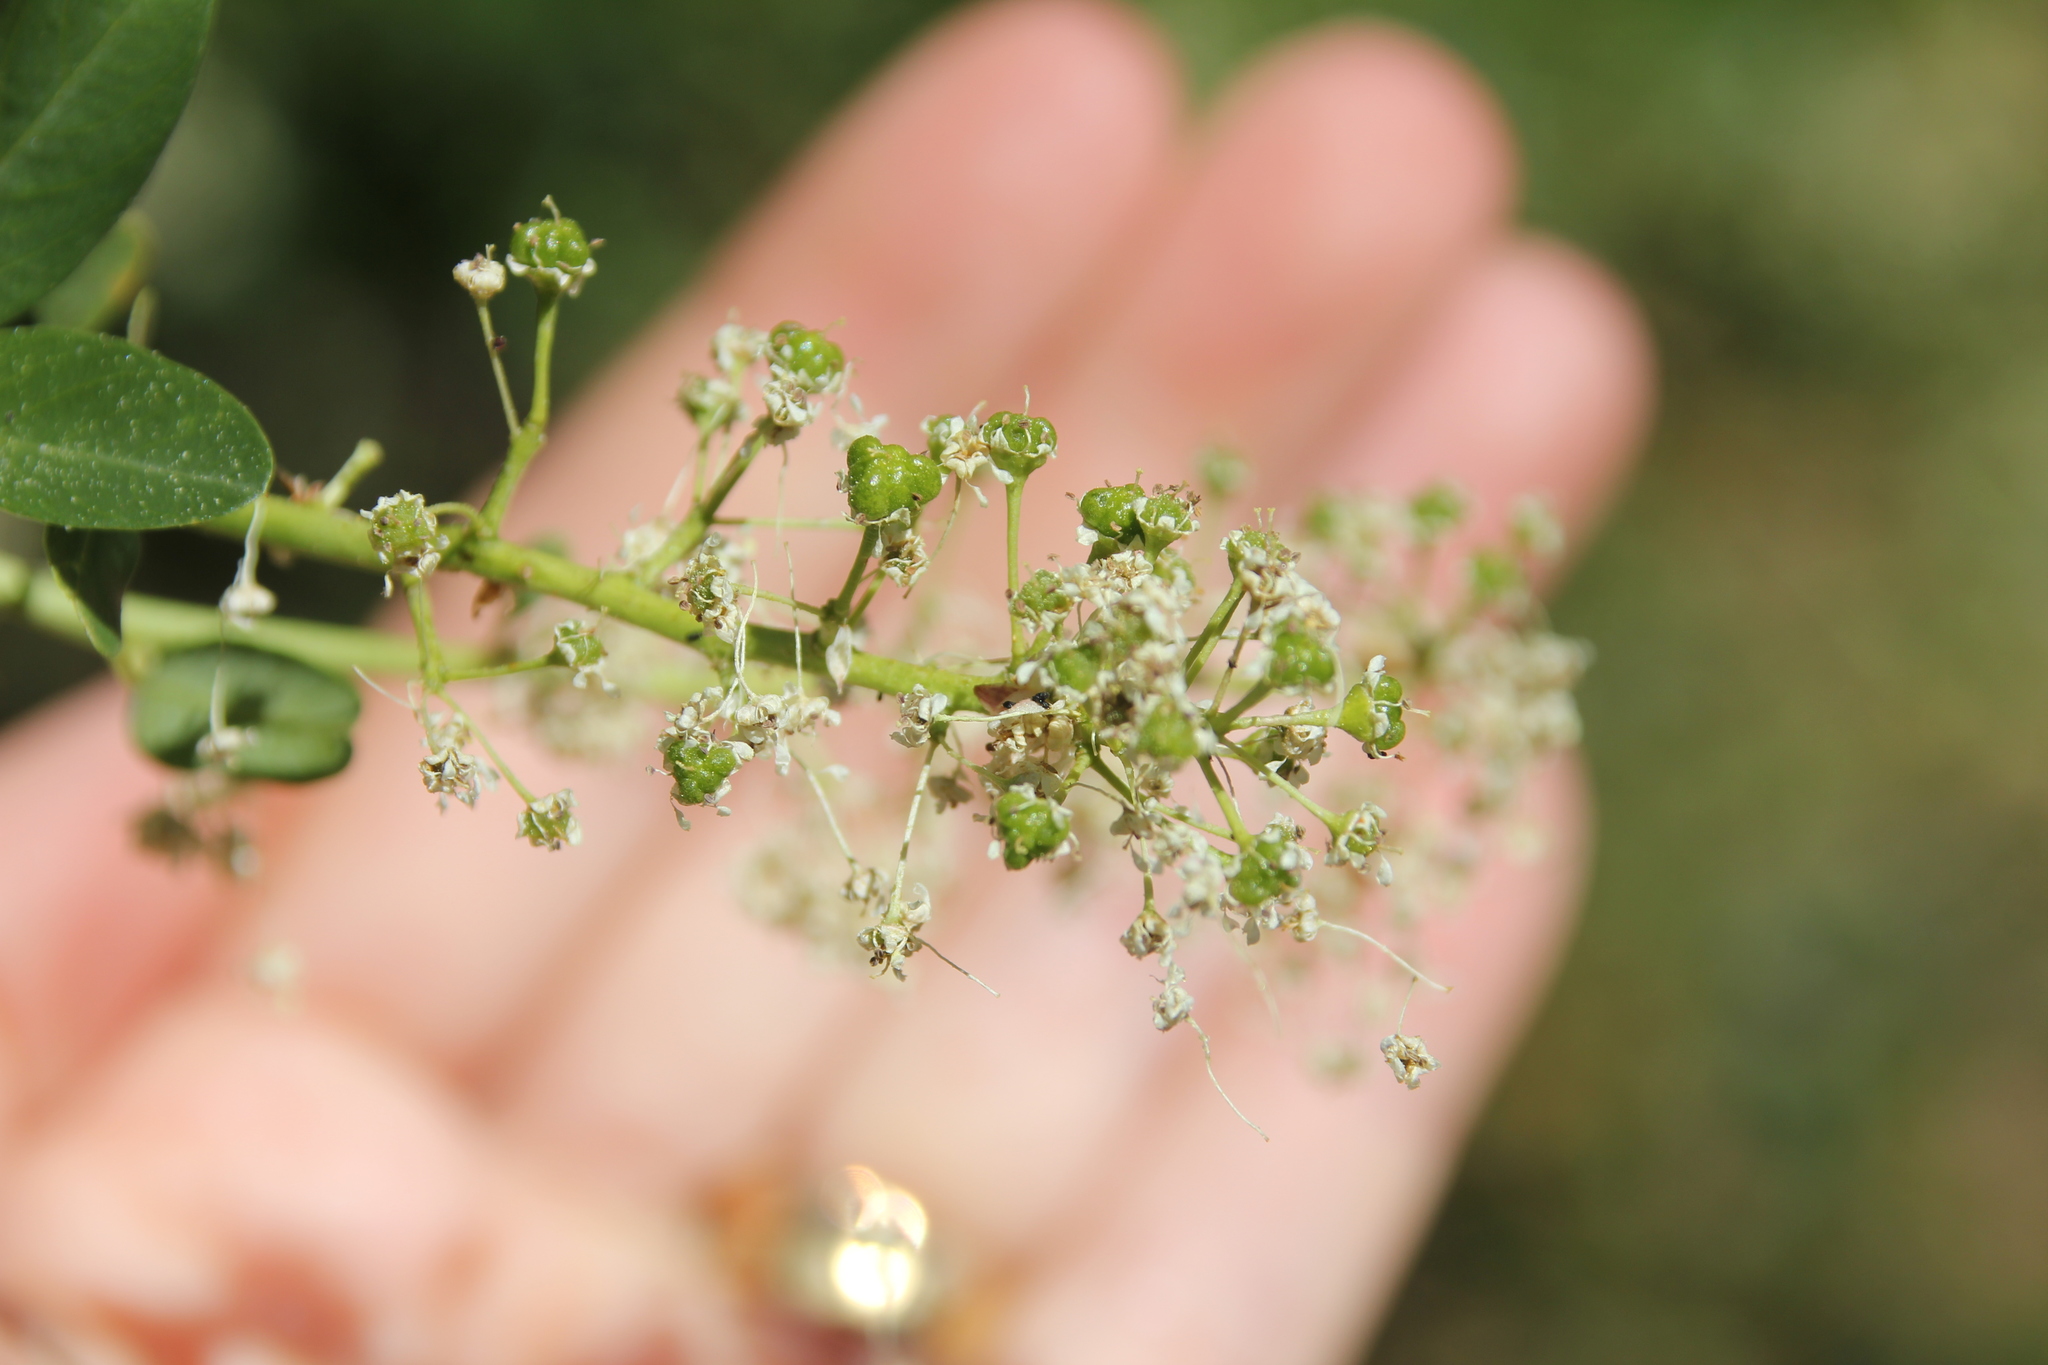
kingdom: Plantae
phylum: Tracheophyta
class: Magnoliopsida
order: Rosales
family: Rhamnaceae
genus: Ceanothus
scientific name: Ceanothus palmeri
